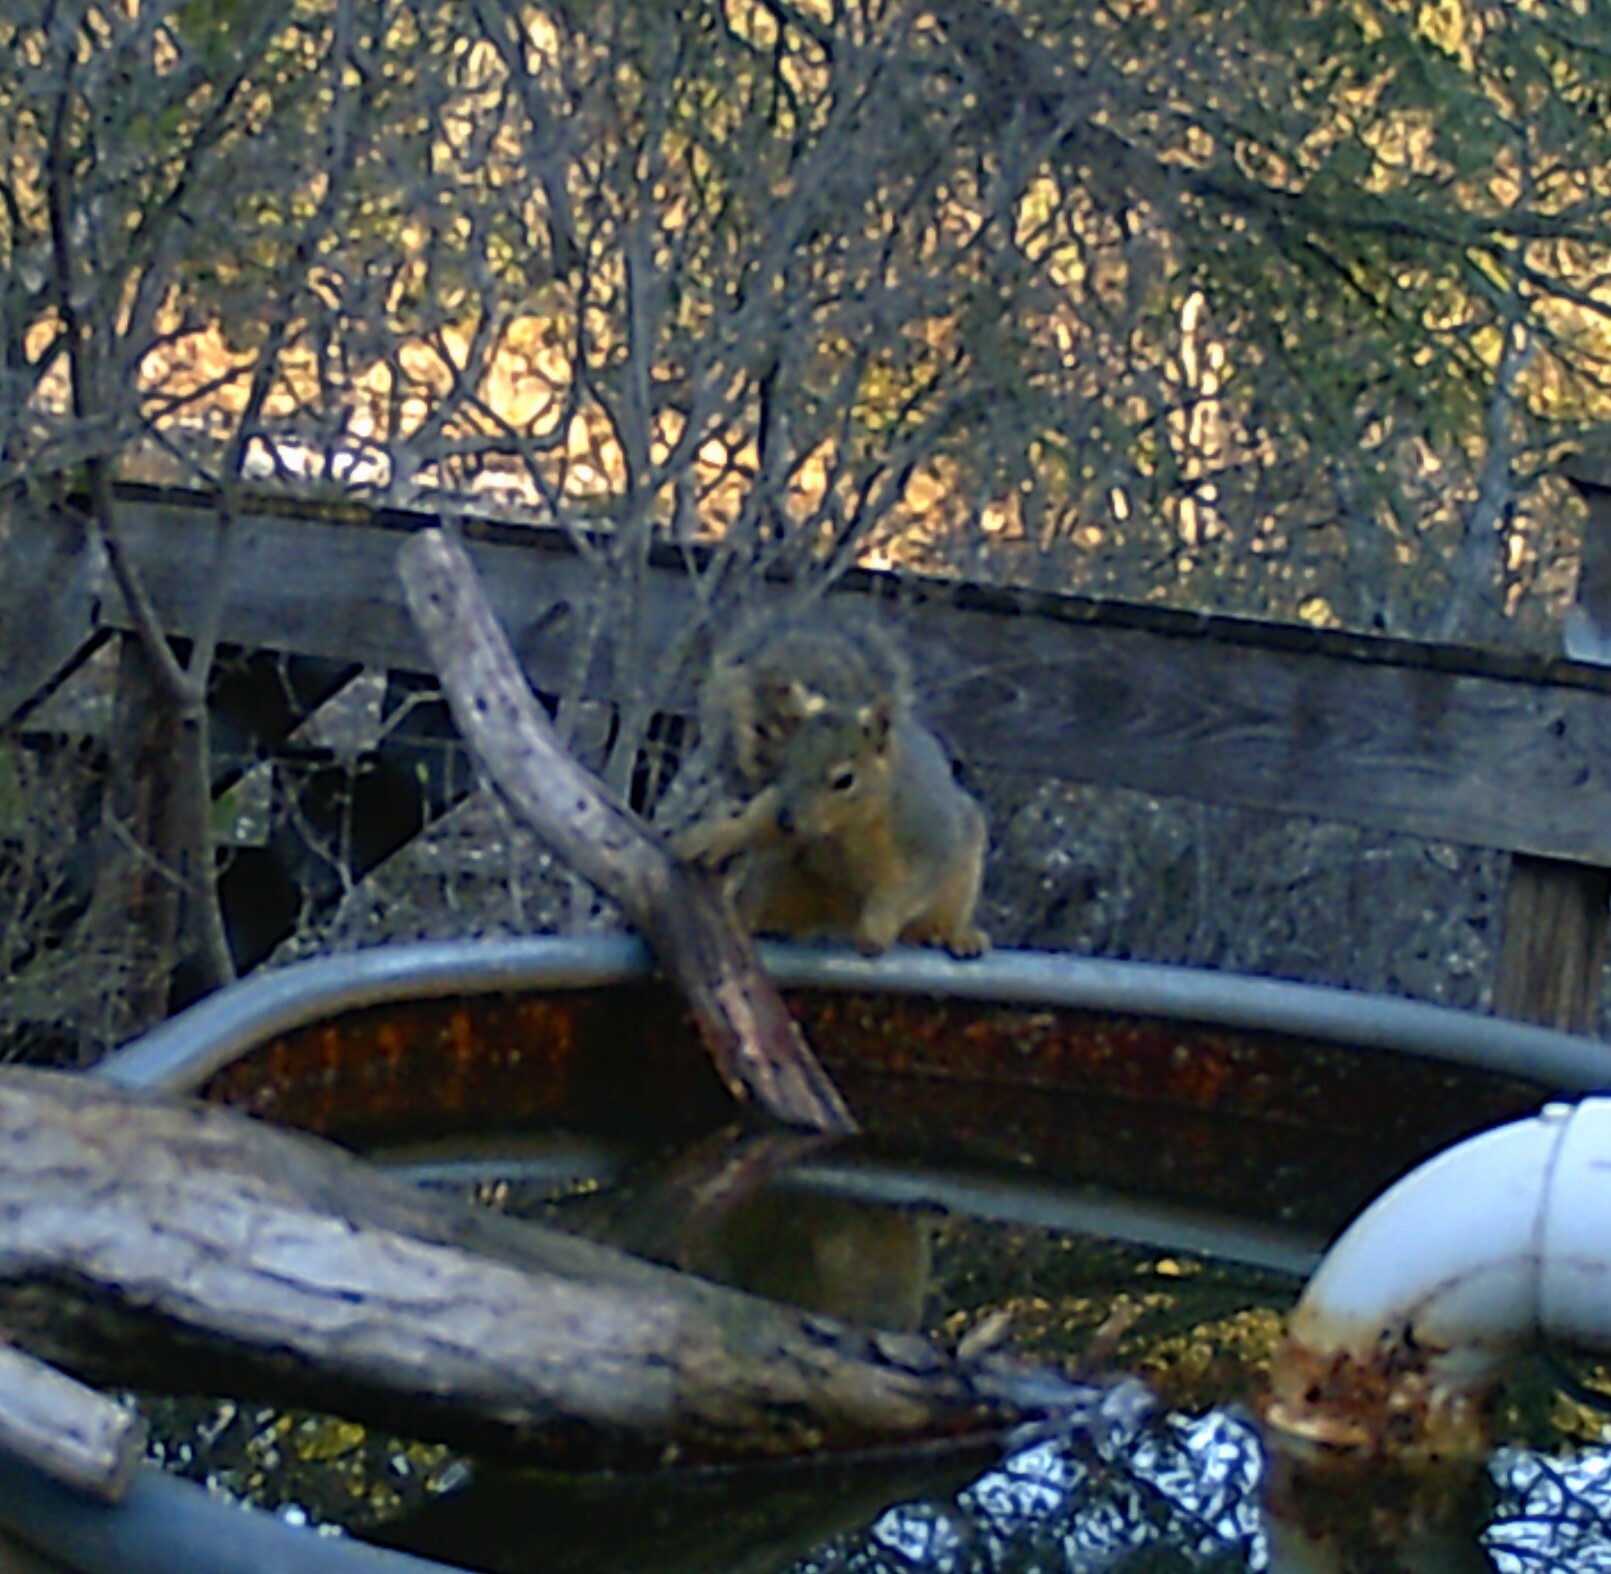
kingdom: Animalia
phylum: Chordata
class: Mammalia
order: Rodentia
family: Sciuridae
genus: Sciurus
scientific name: Sciurus niger
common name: Fox squirrel
